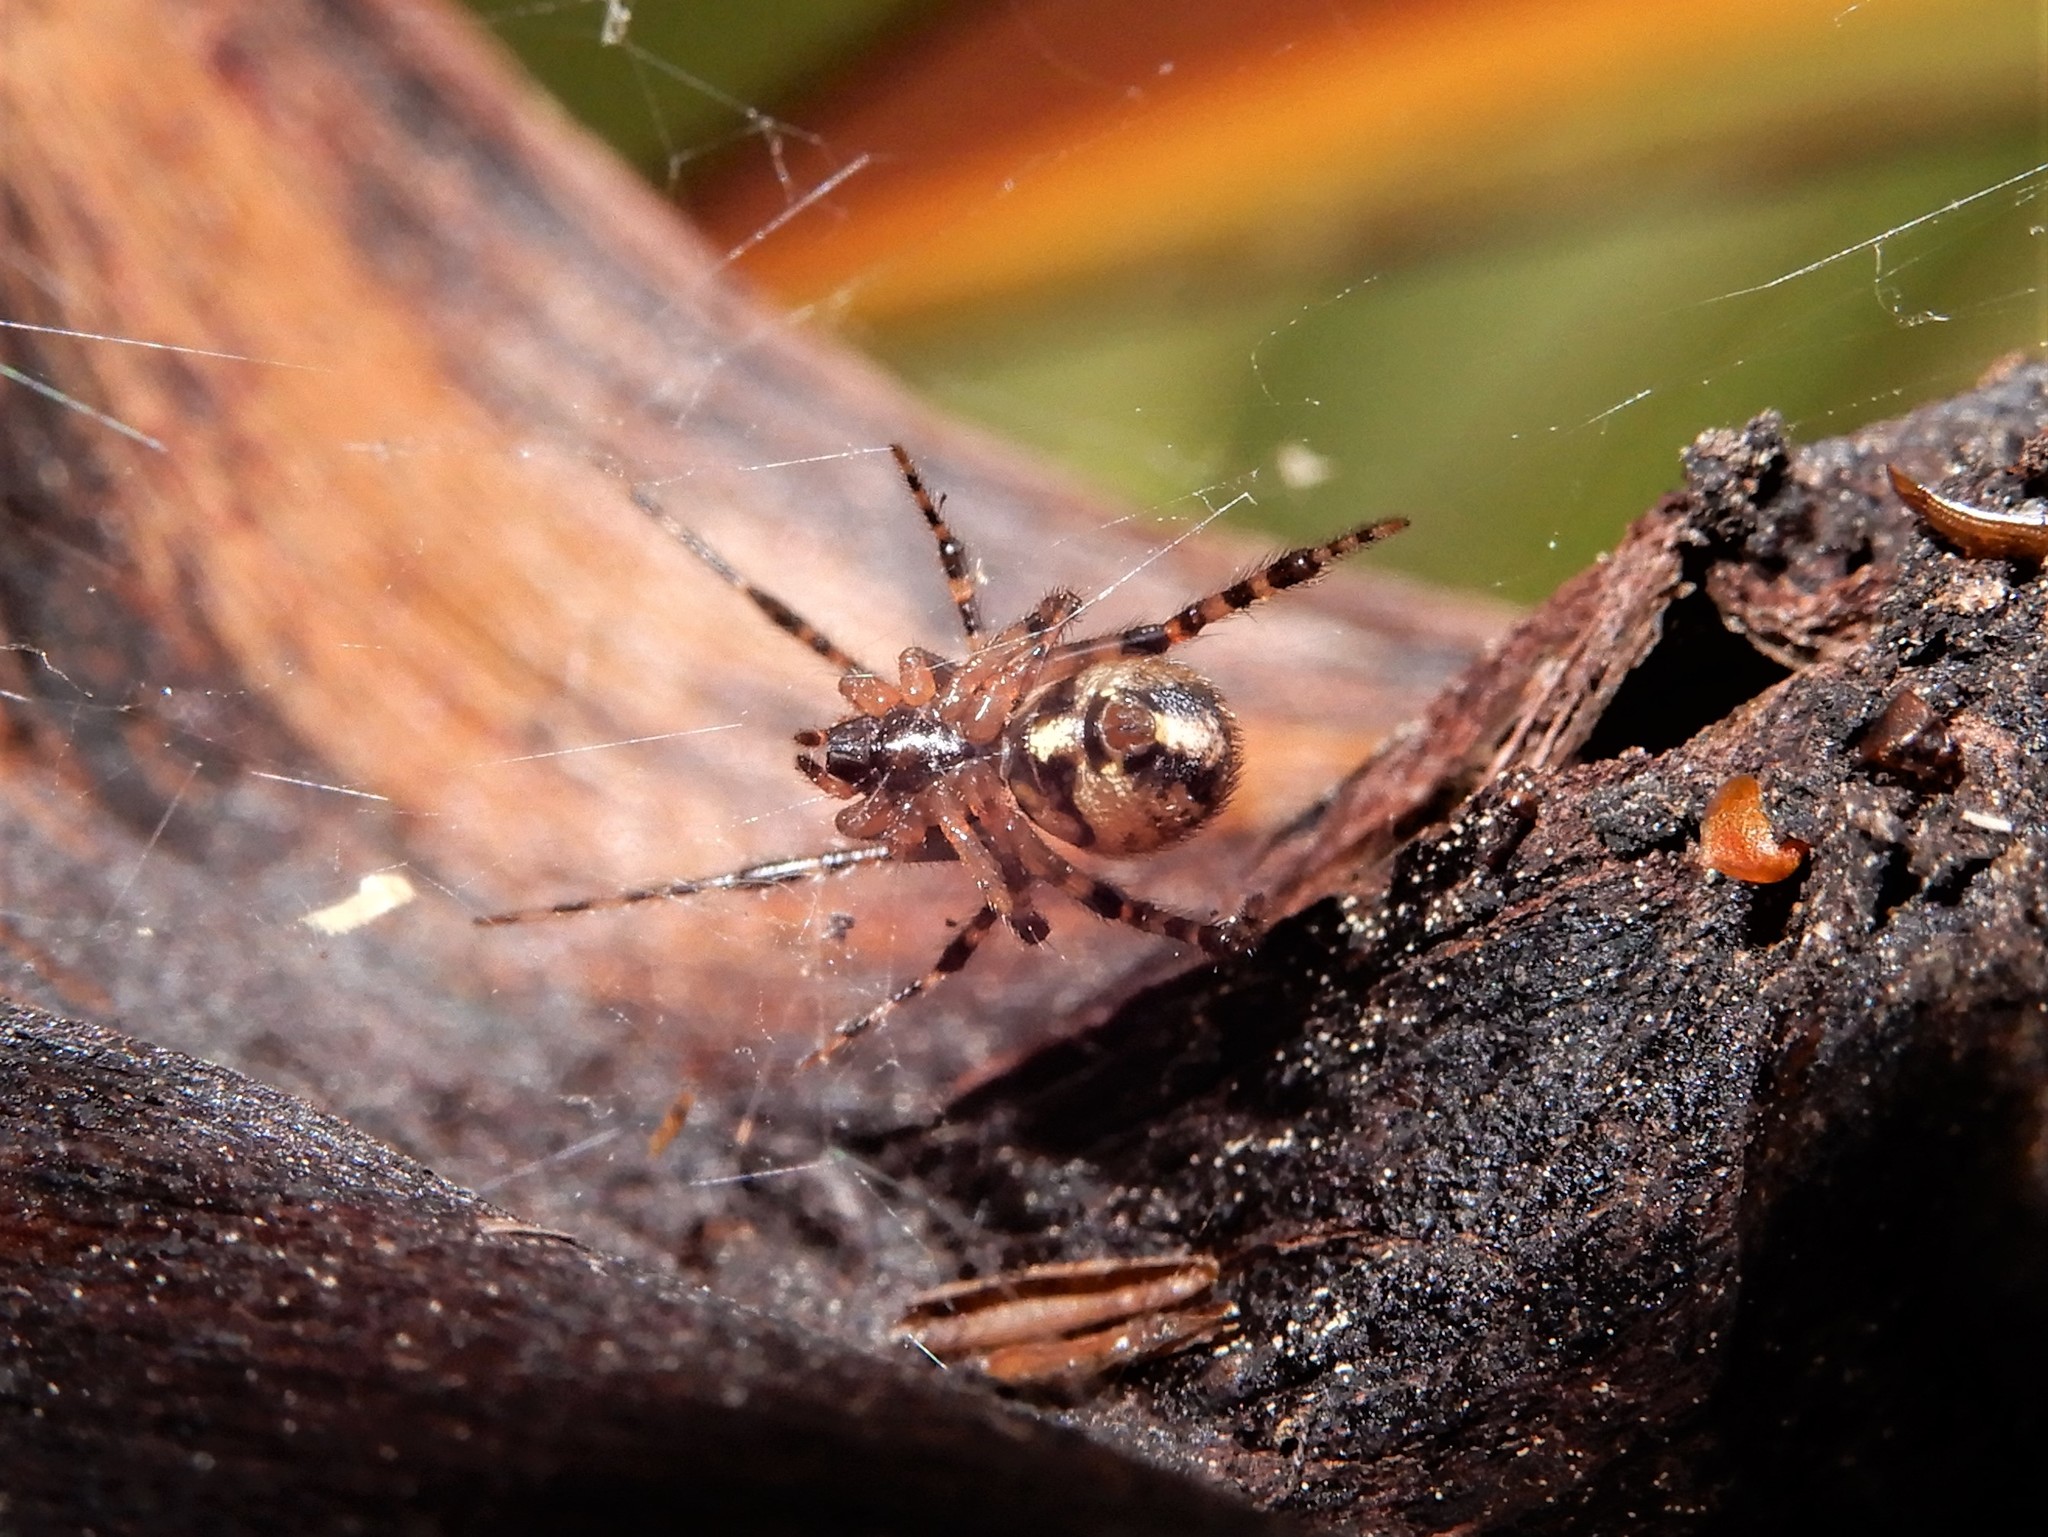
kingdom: Animalia
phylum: Arthropoda
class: Arachnida
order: Araneae
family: Theridiidae
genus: Cryptachaea
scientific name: Cryptachaea veruculata
